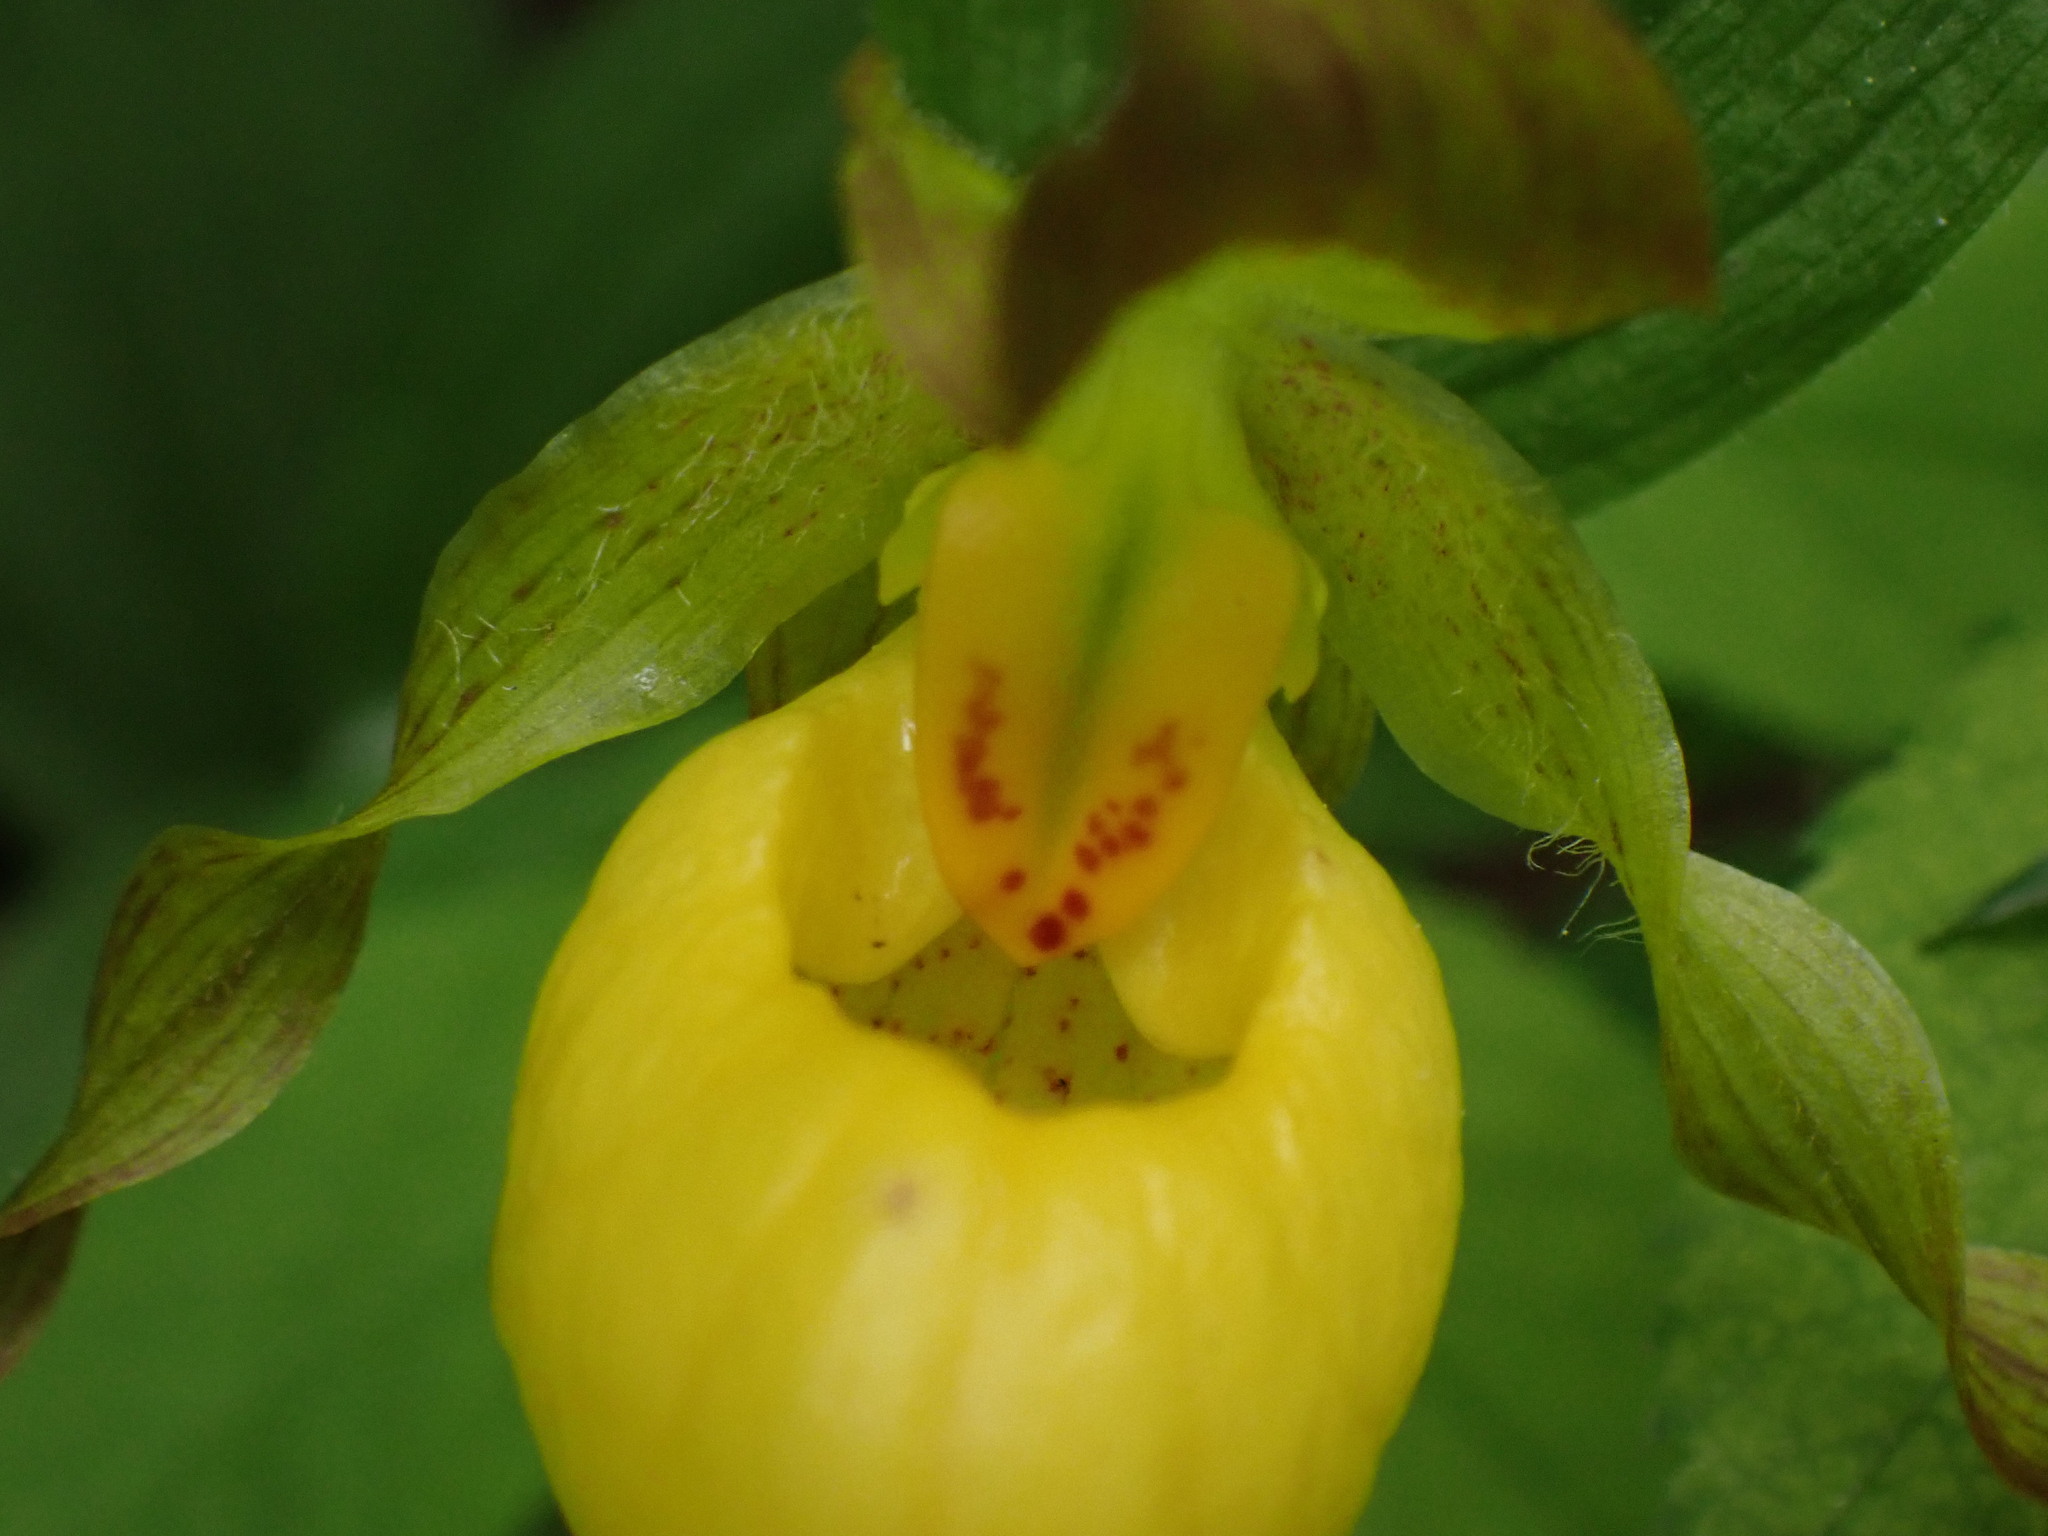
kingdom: Plantae
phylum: Tracheophyta
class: Liliopsida
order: Asparagales
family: Orchidaceae
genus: Cypripedium
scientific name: Cypripedium parviflorum
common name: American yellow lady's-slipper
